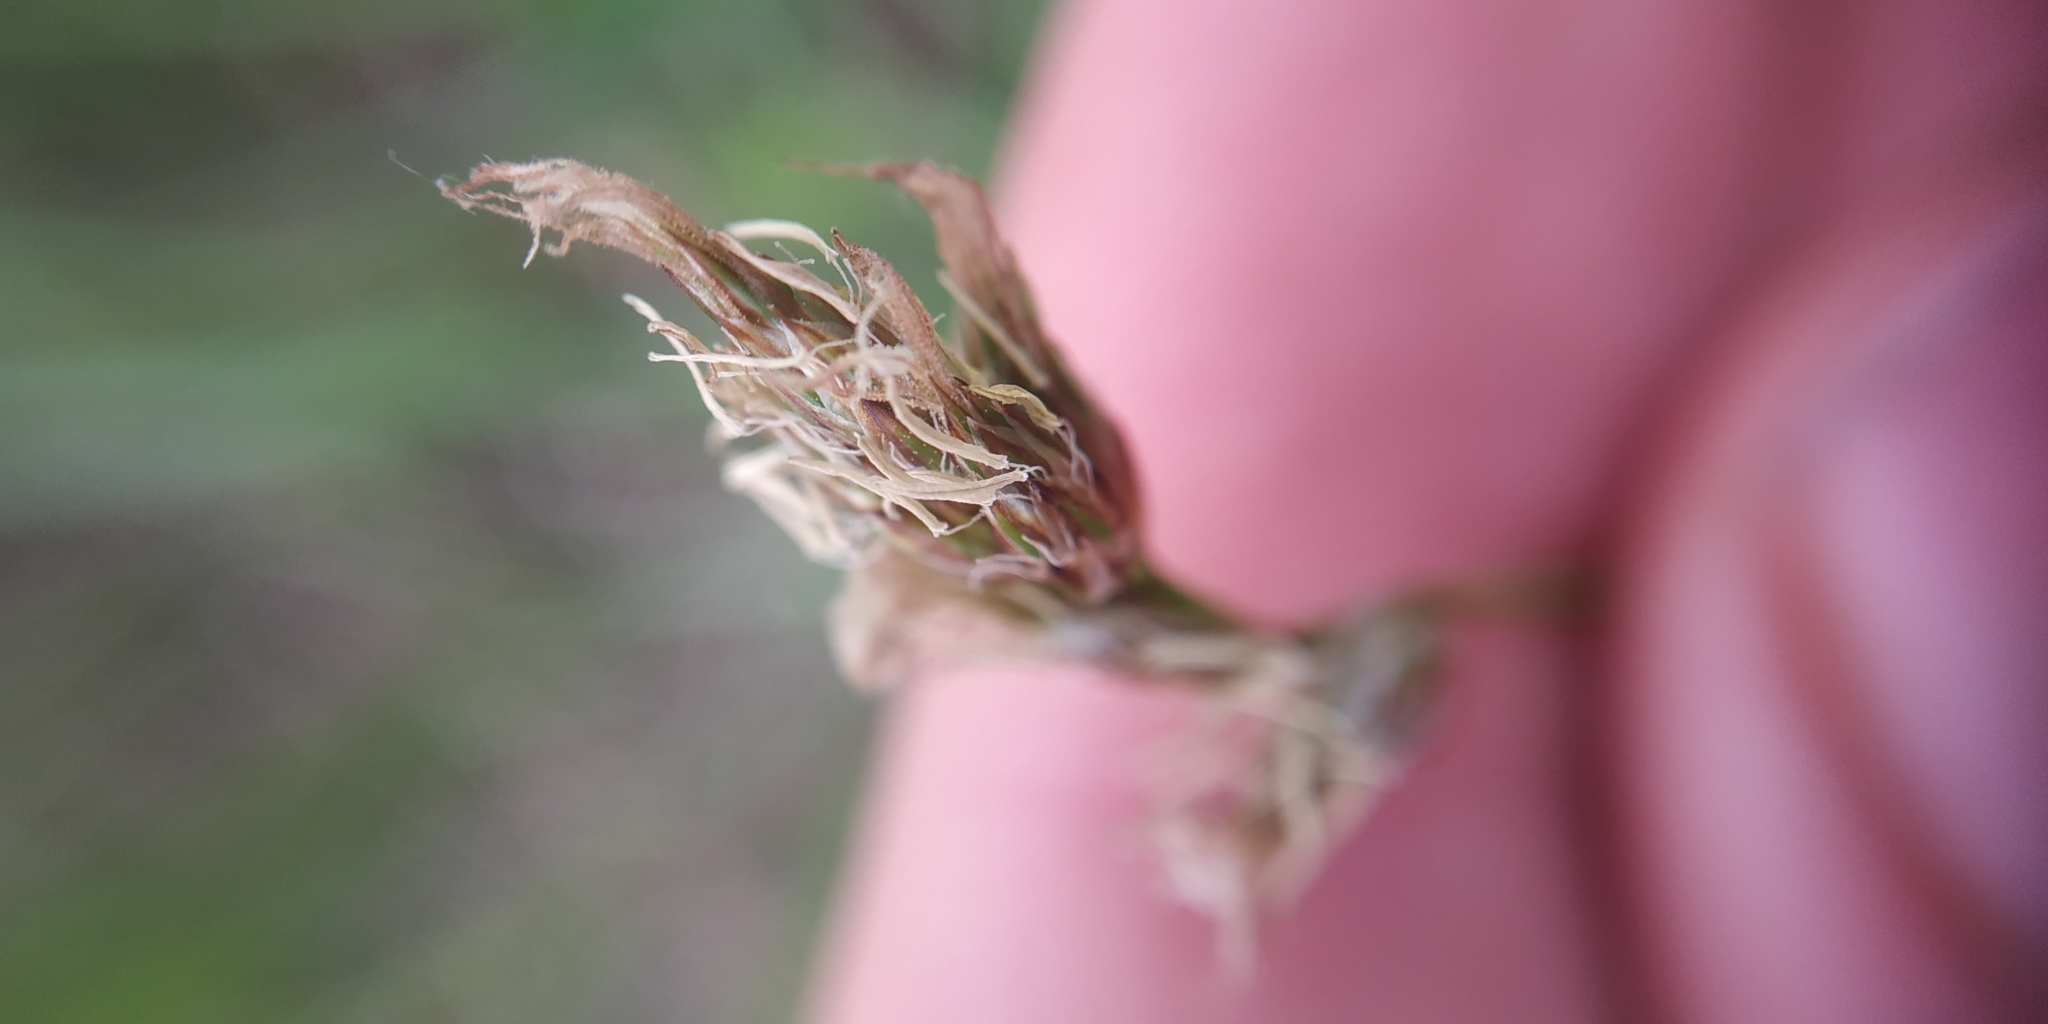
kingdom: Plantae
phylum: Tracheophyta
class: Liliopsida
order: Poales
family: Cyperaceae
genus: Carex
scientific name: Carex praecox
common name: Early sedge
